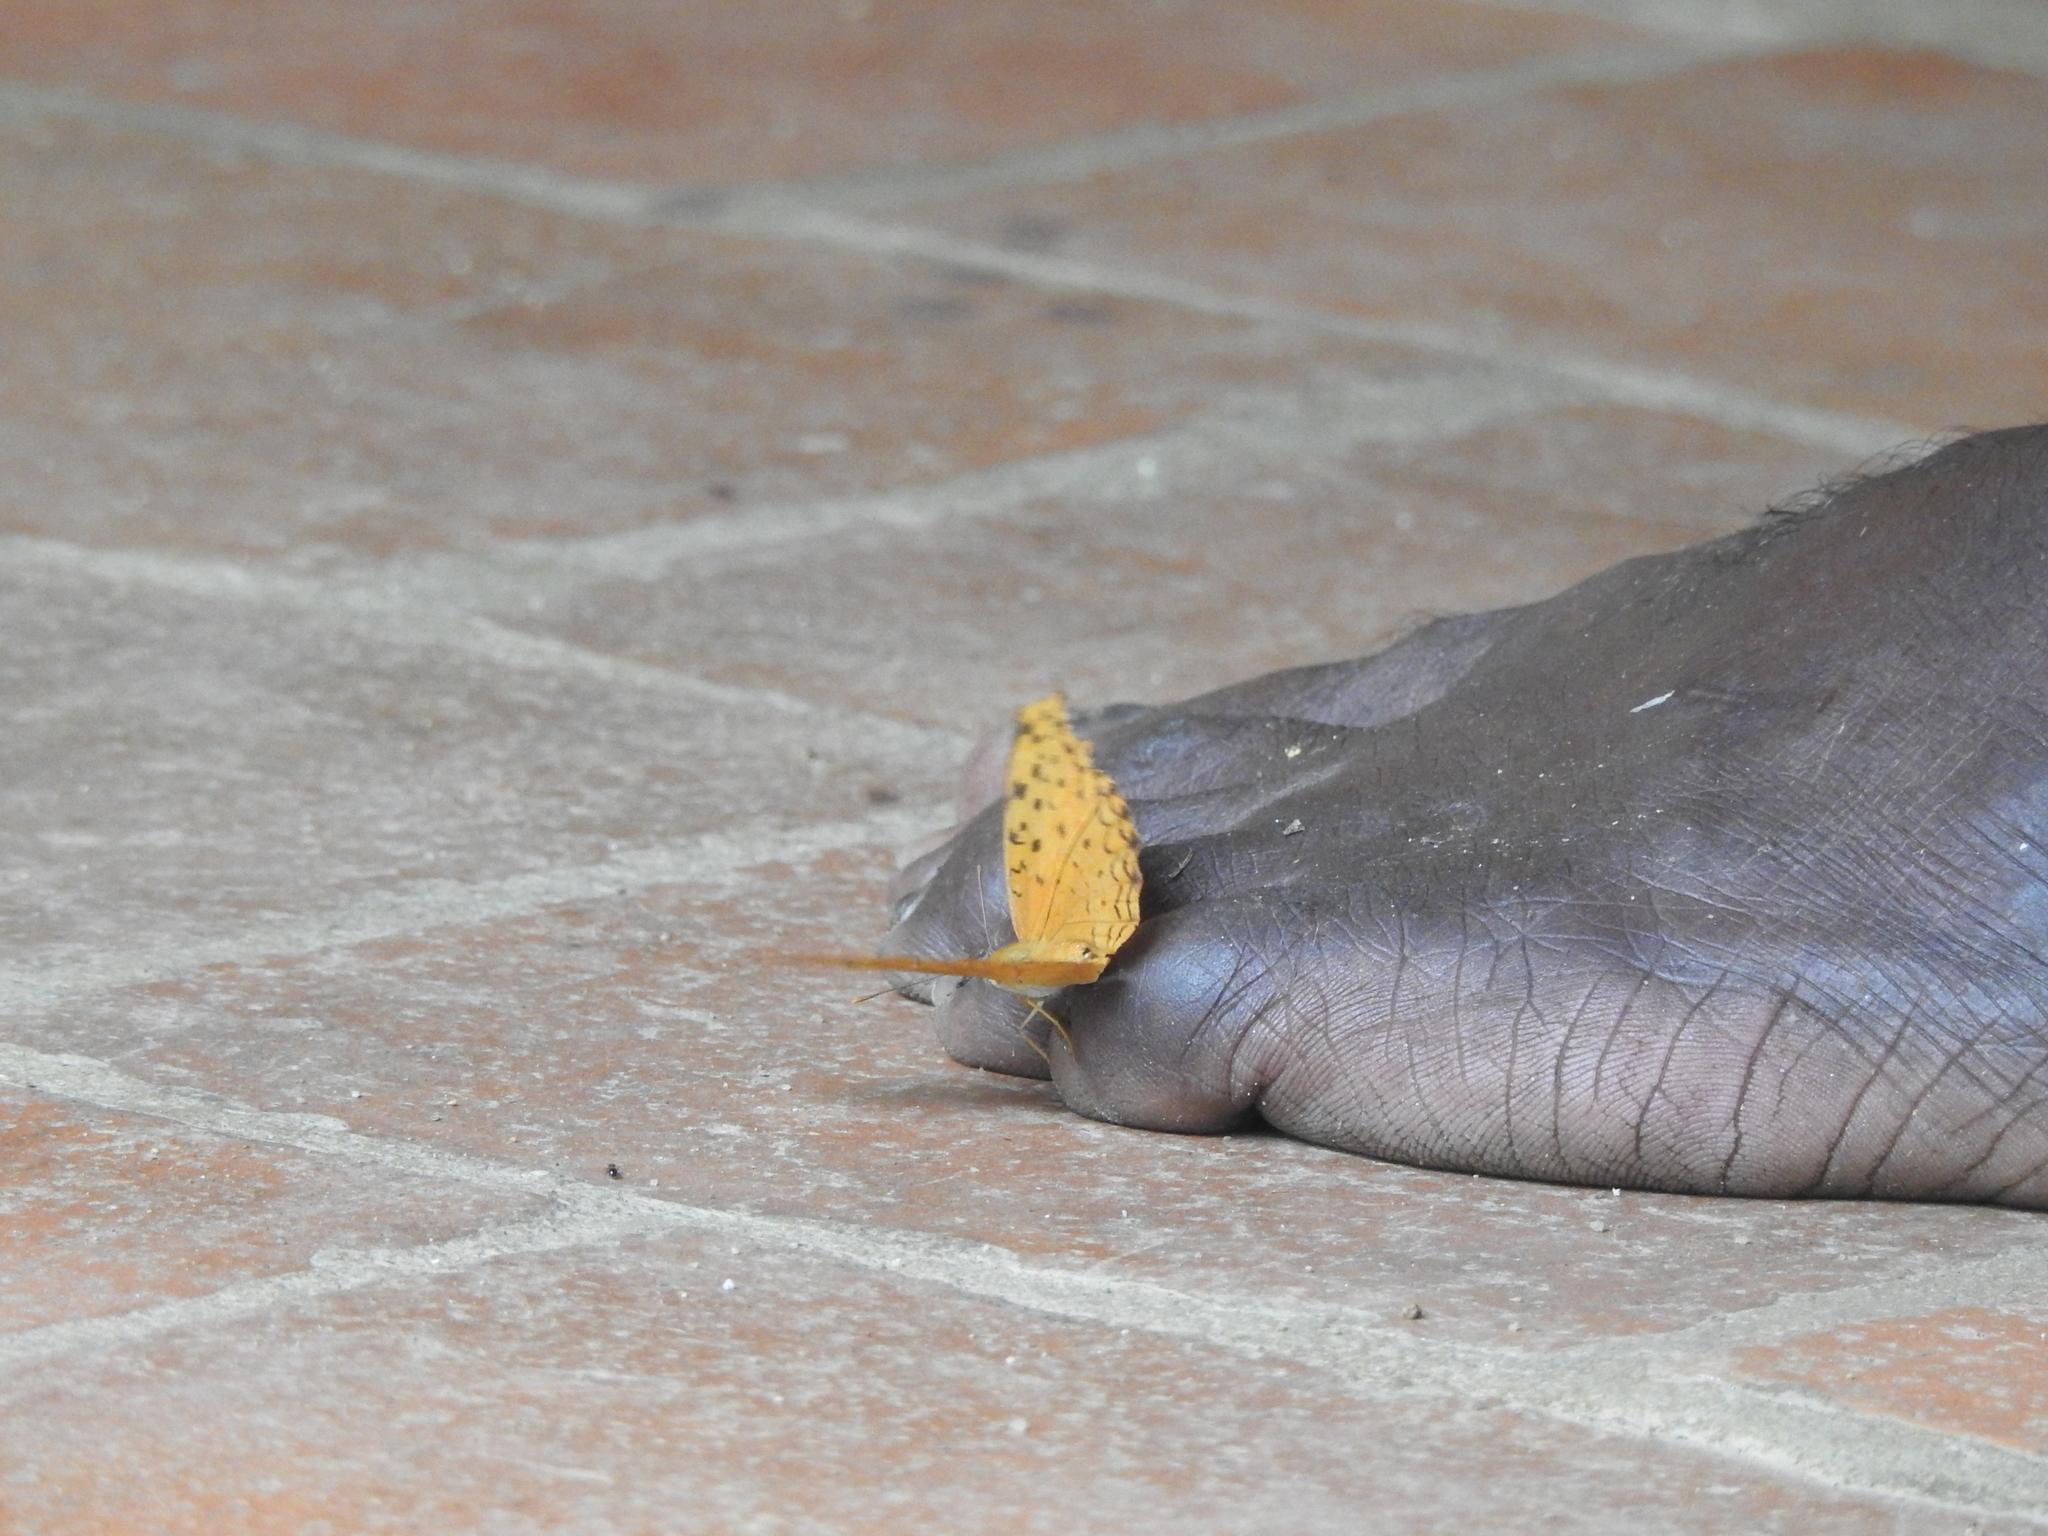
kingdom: Animalia
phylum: Arthropoda
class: Insecta
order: Lepidoptera
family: Nymphalidae
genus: Phalanta
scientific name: Phalanta phalantha
